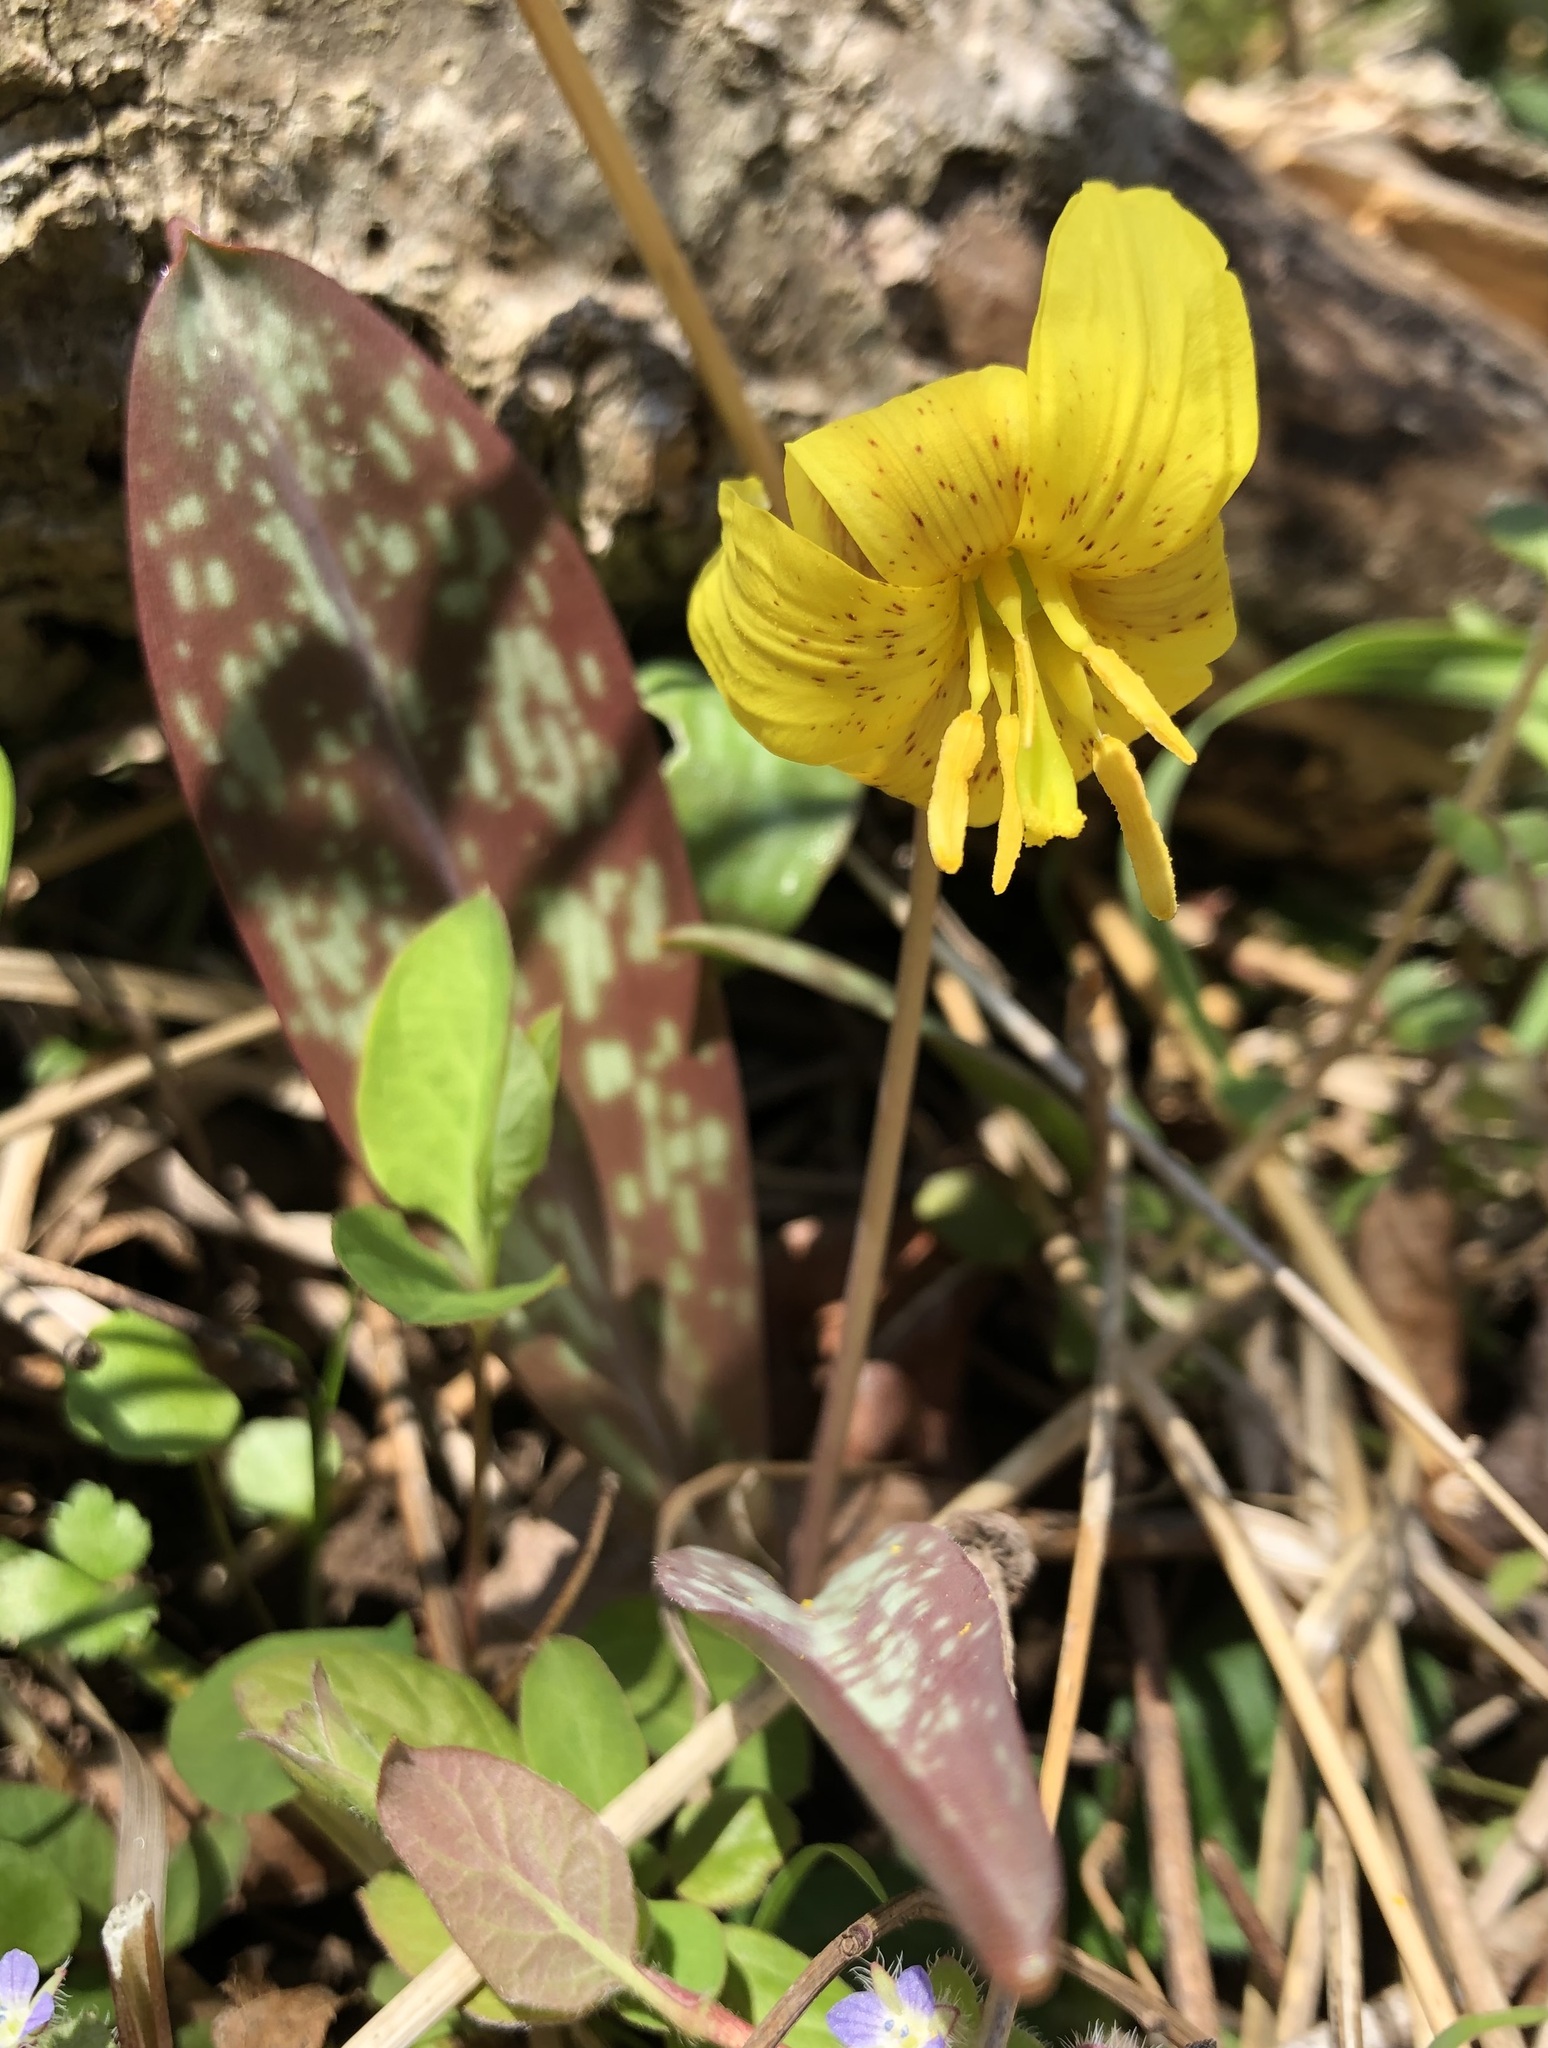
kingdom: Plantae
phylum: Tracheophyta
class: Liliopsida
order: Liliales
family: Liliaceae
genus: Erythronium
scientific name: Erythronium americanum
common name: Yellow adder's-tongue
